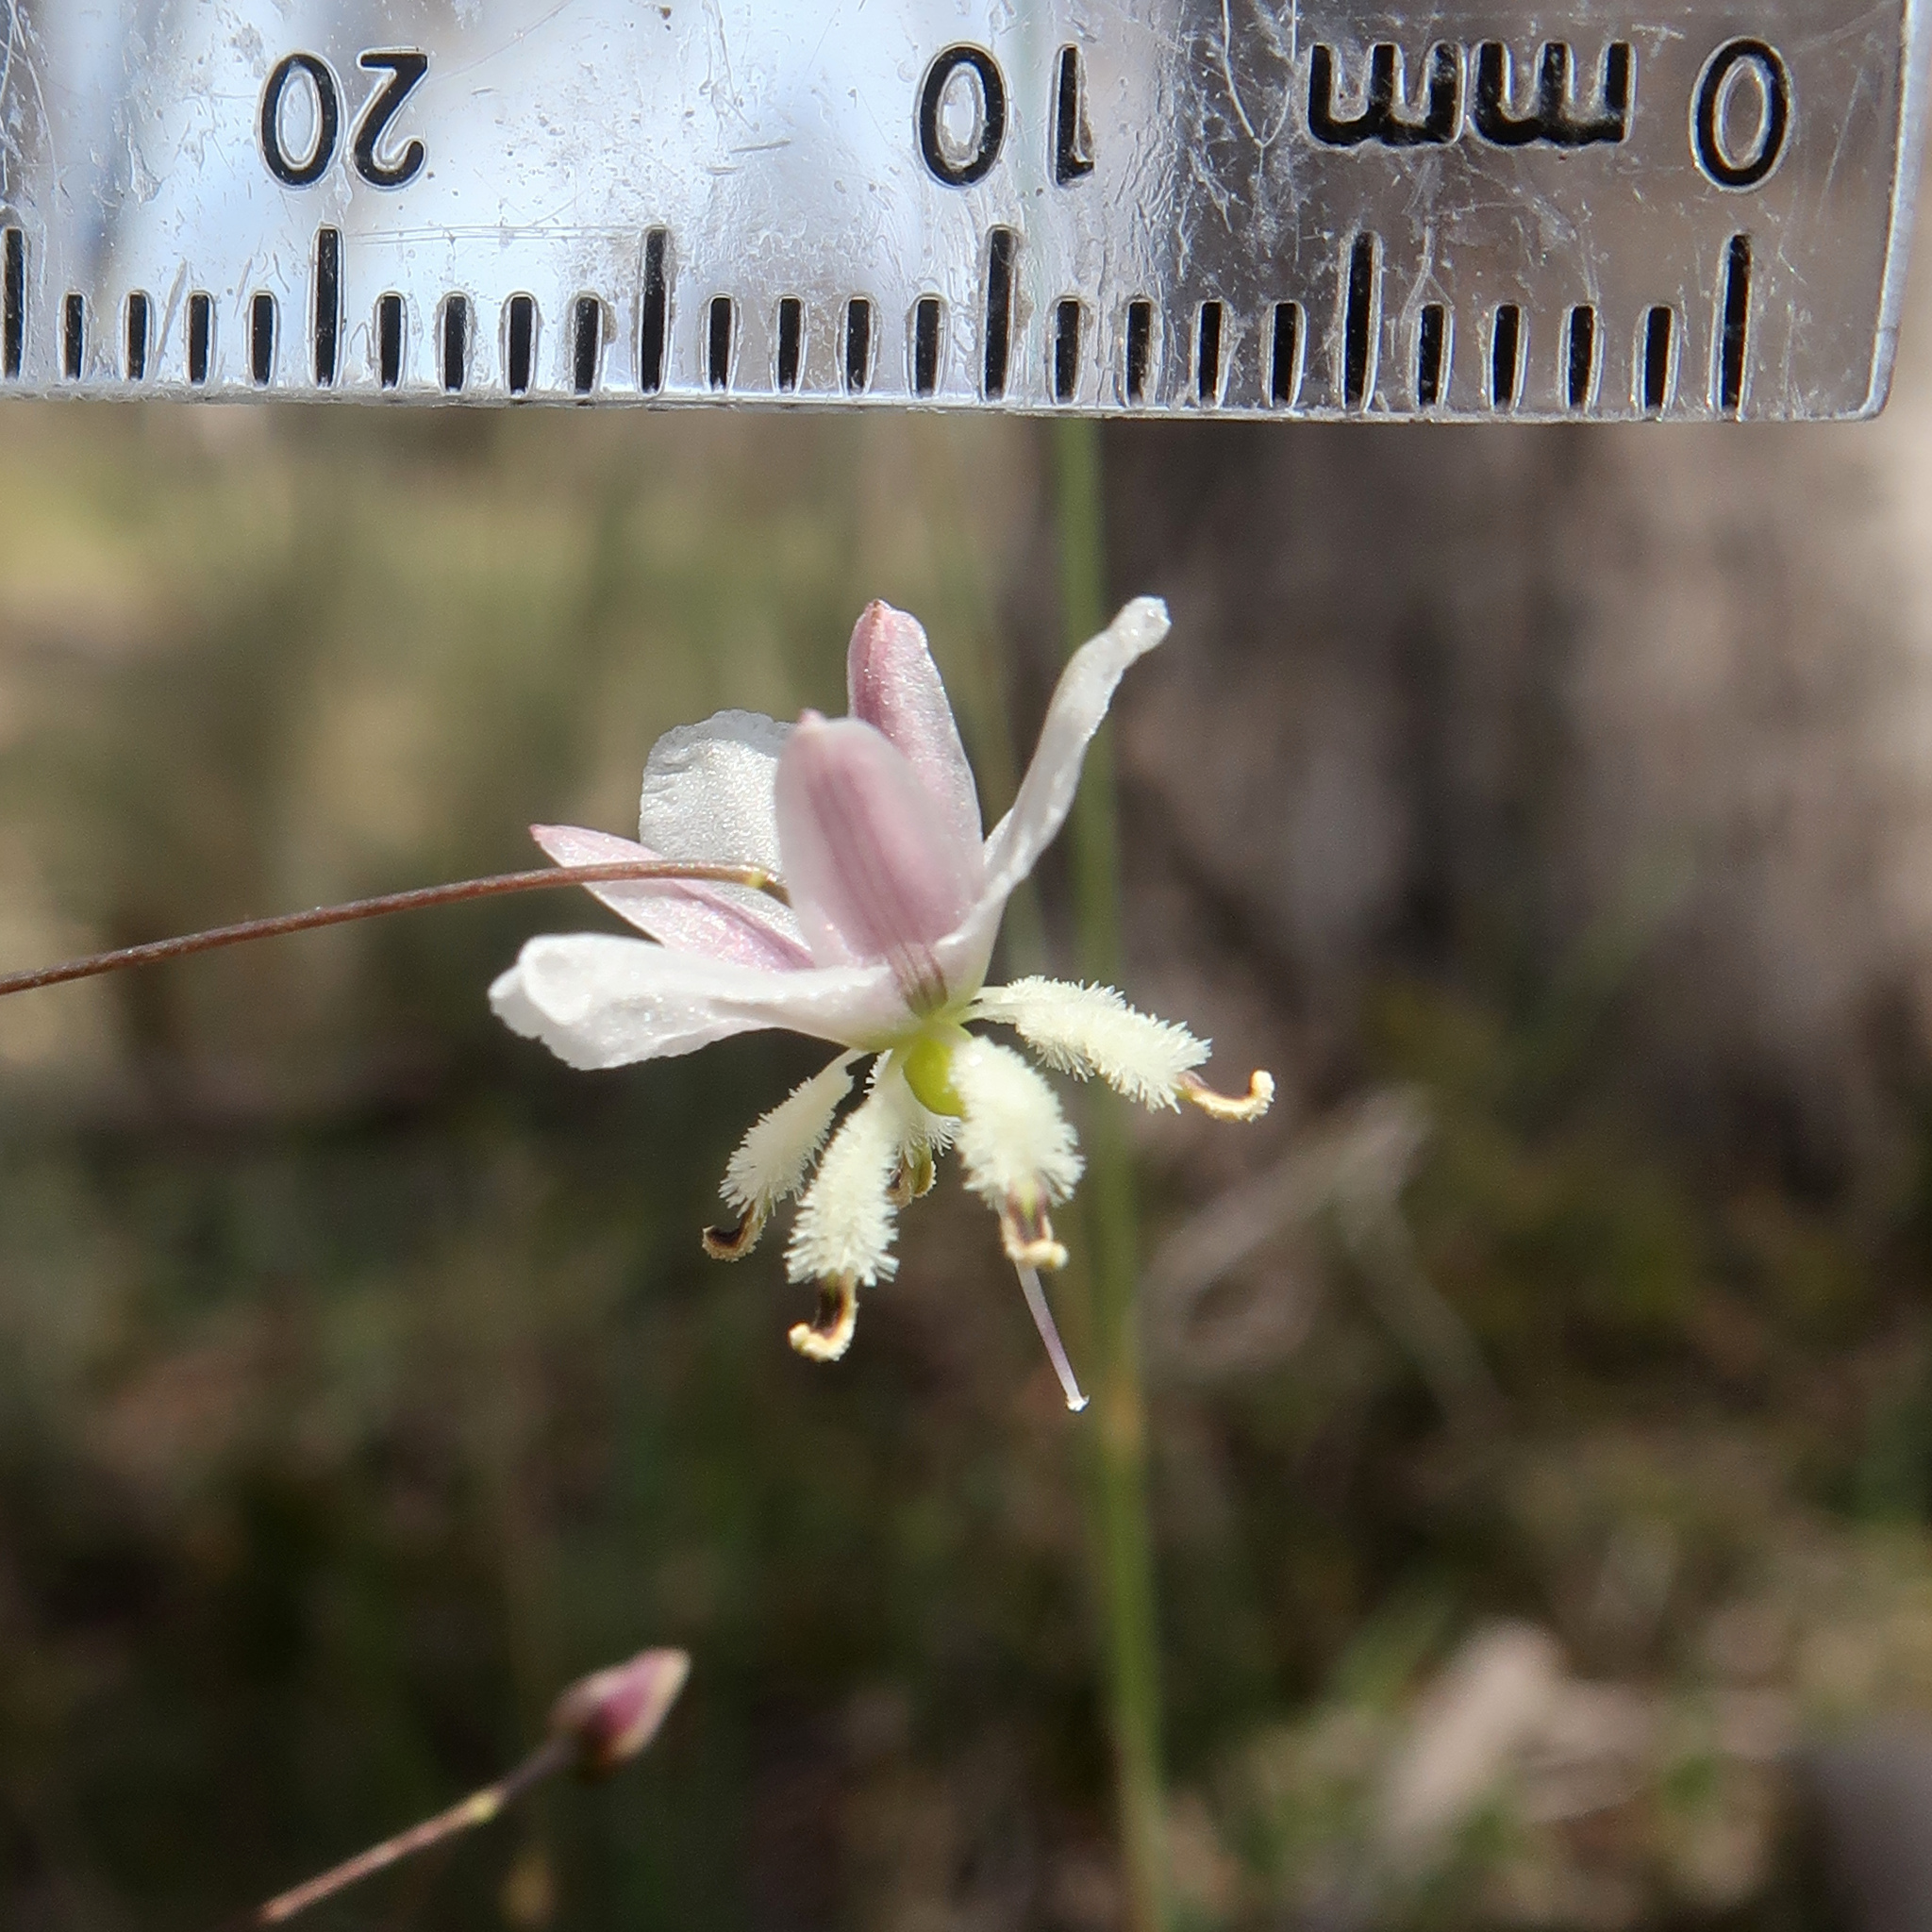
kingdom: Plantae
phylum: Tracheophyta
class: Liliopsida
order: Asparagales
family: Asparagaceae
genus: Arthropodium
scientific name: Arthropodium milleflorum
